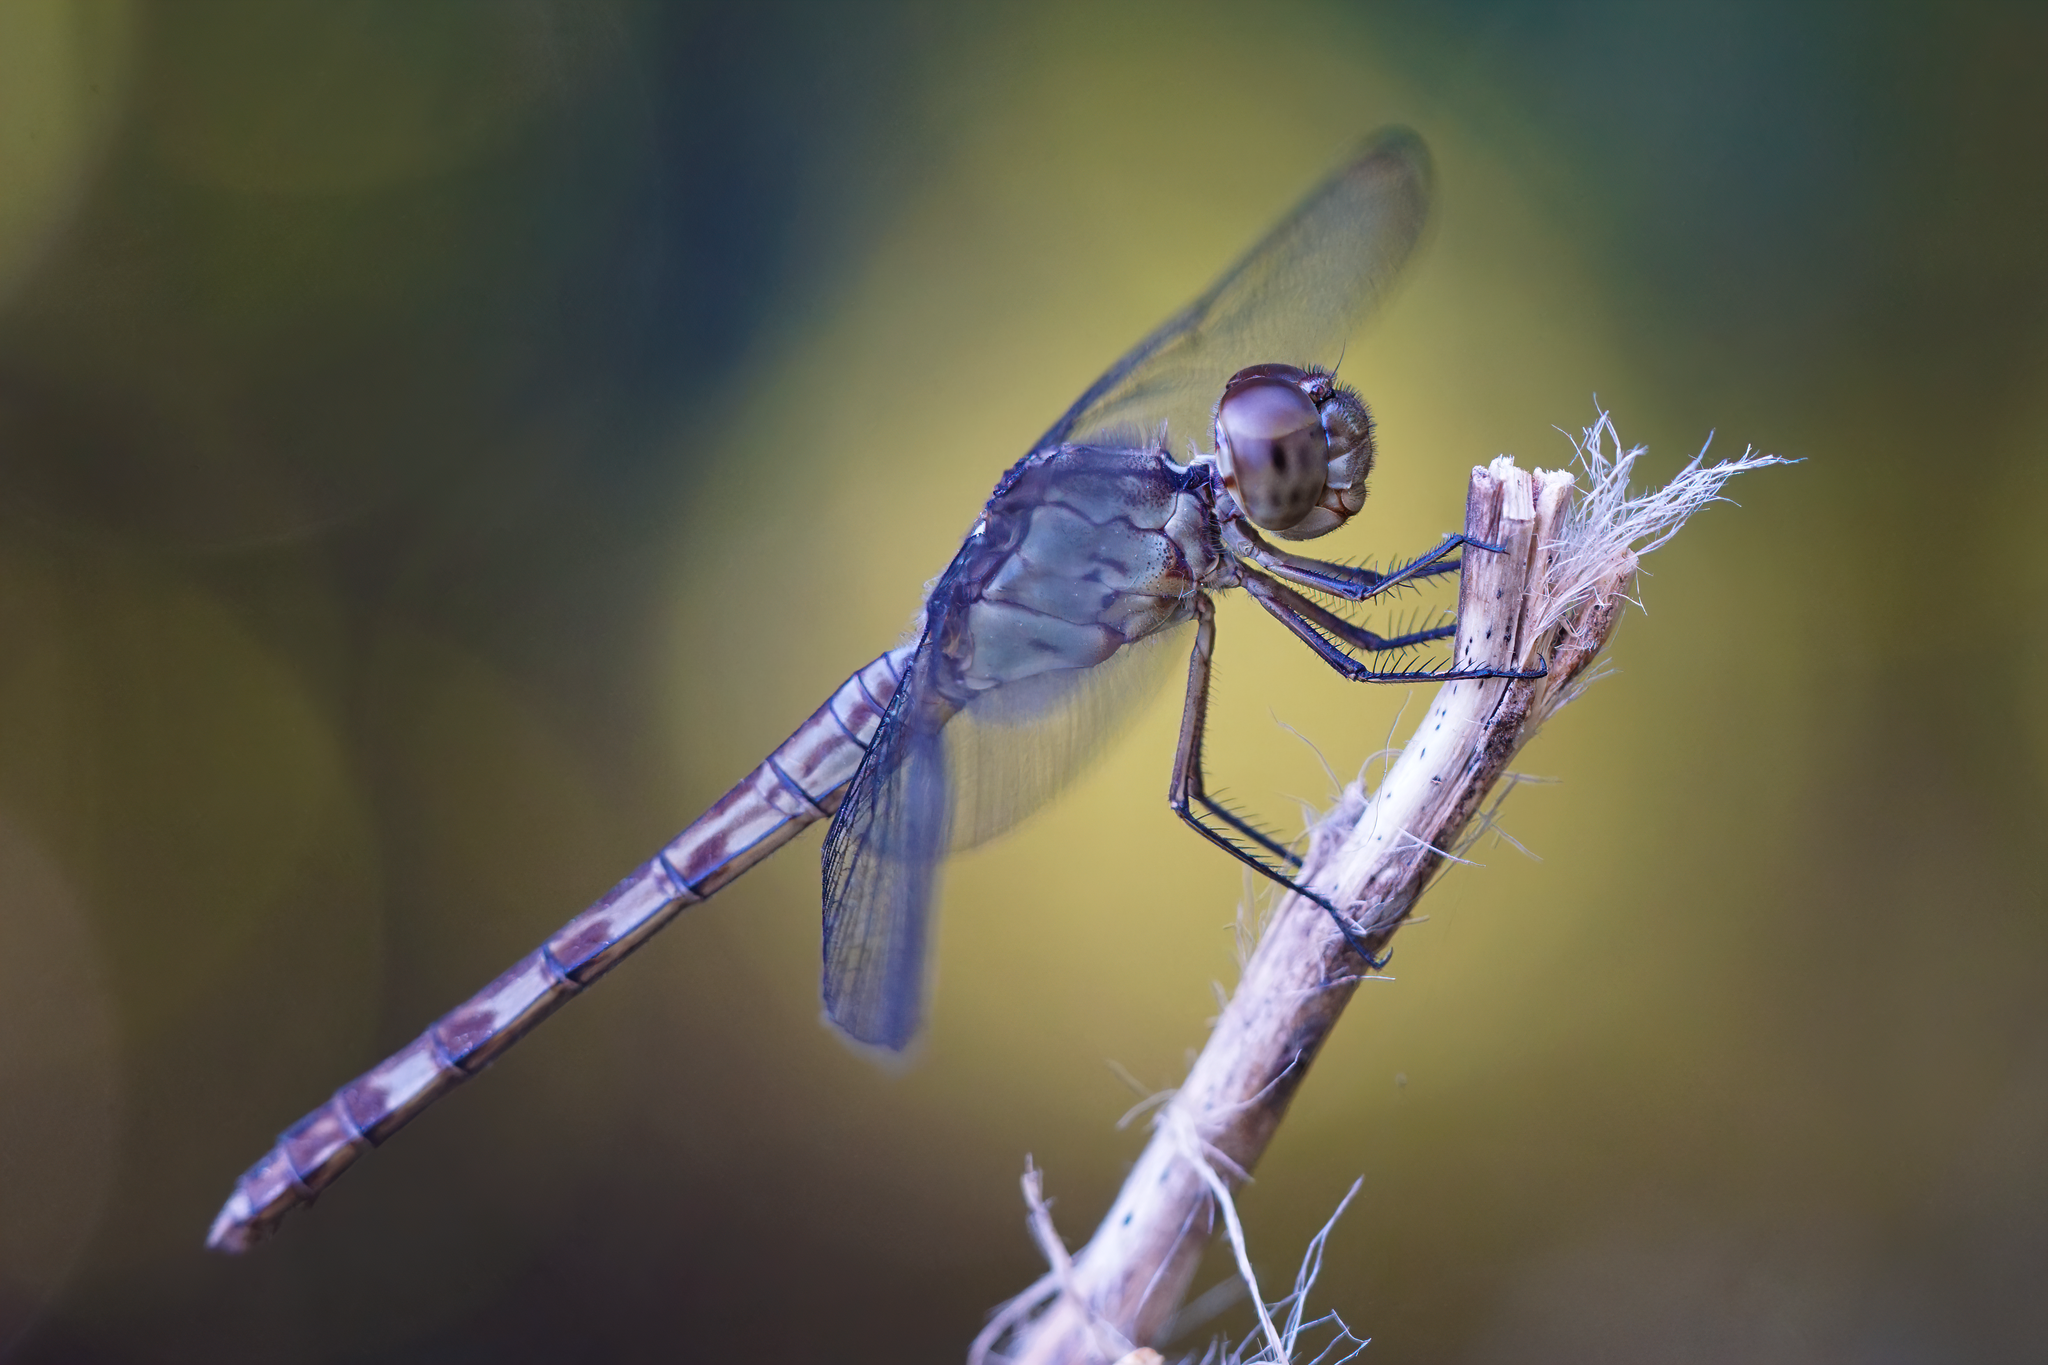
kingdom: Animalia
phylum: Arthropoda
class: Insecta
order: Odonata
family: Libellulidae
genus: Erythrodiplax
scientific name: Erythrodiplax umbrata
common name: Band-winged dragonlet
